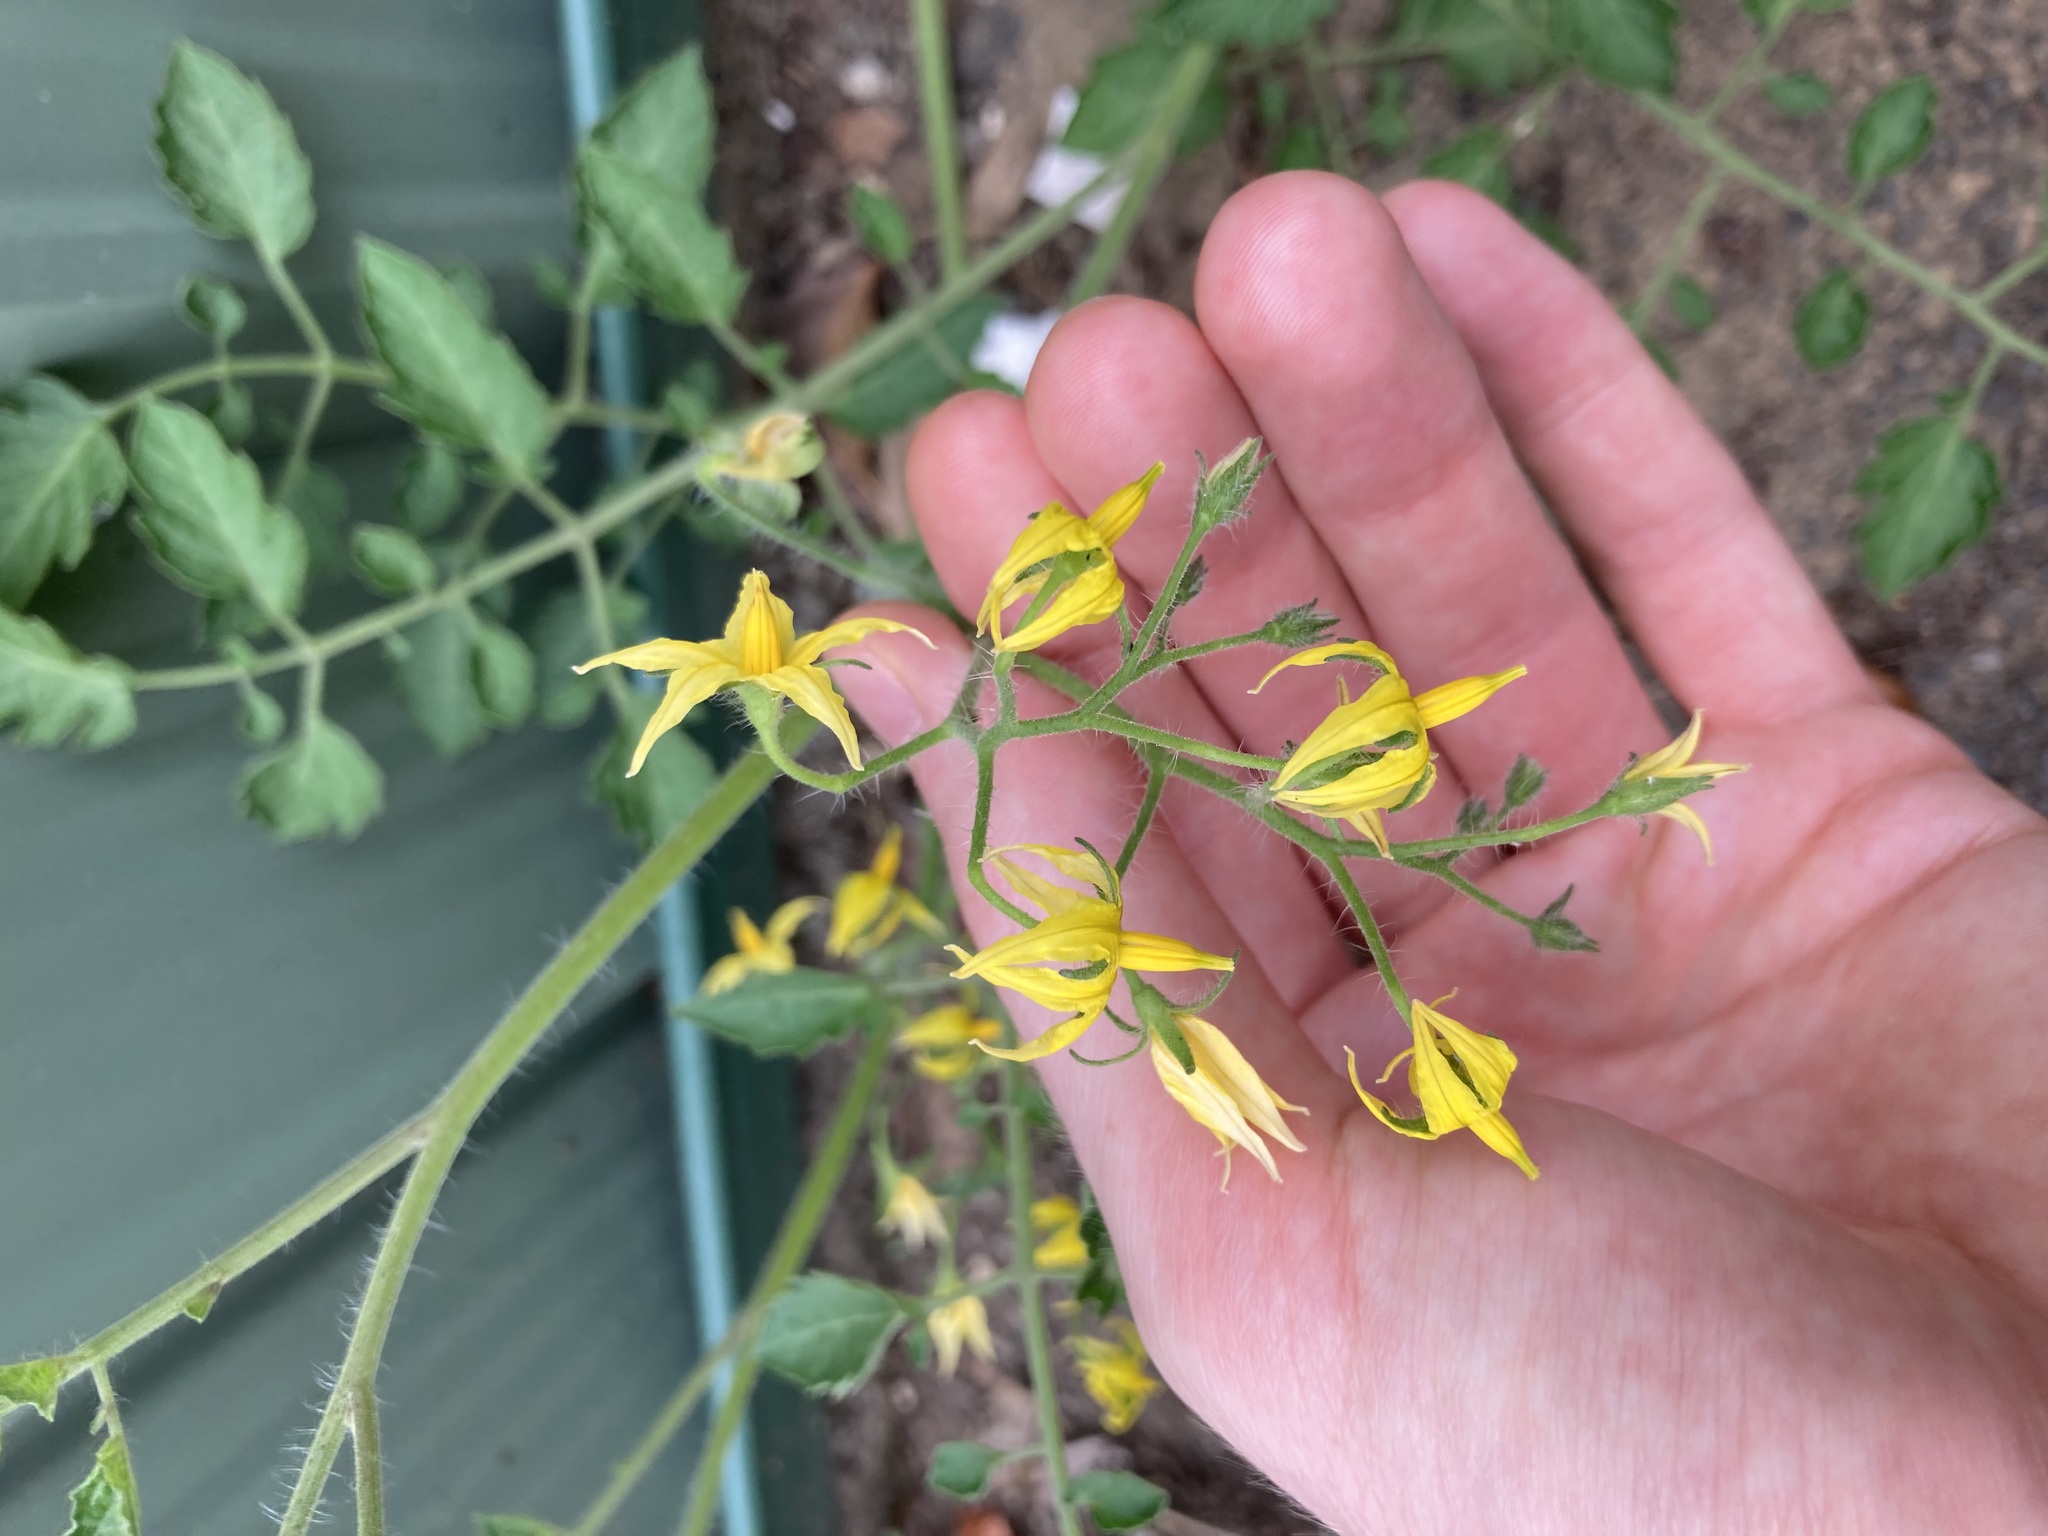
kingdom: Plantae
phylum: Tracheophyta
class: Magnoliopsida
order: Solanales
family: Solanaceae
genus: Solanum
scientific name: Solanum lycopersicum
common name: Garden tomato
